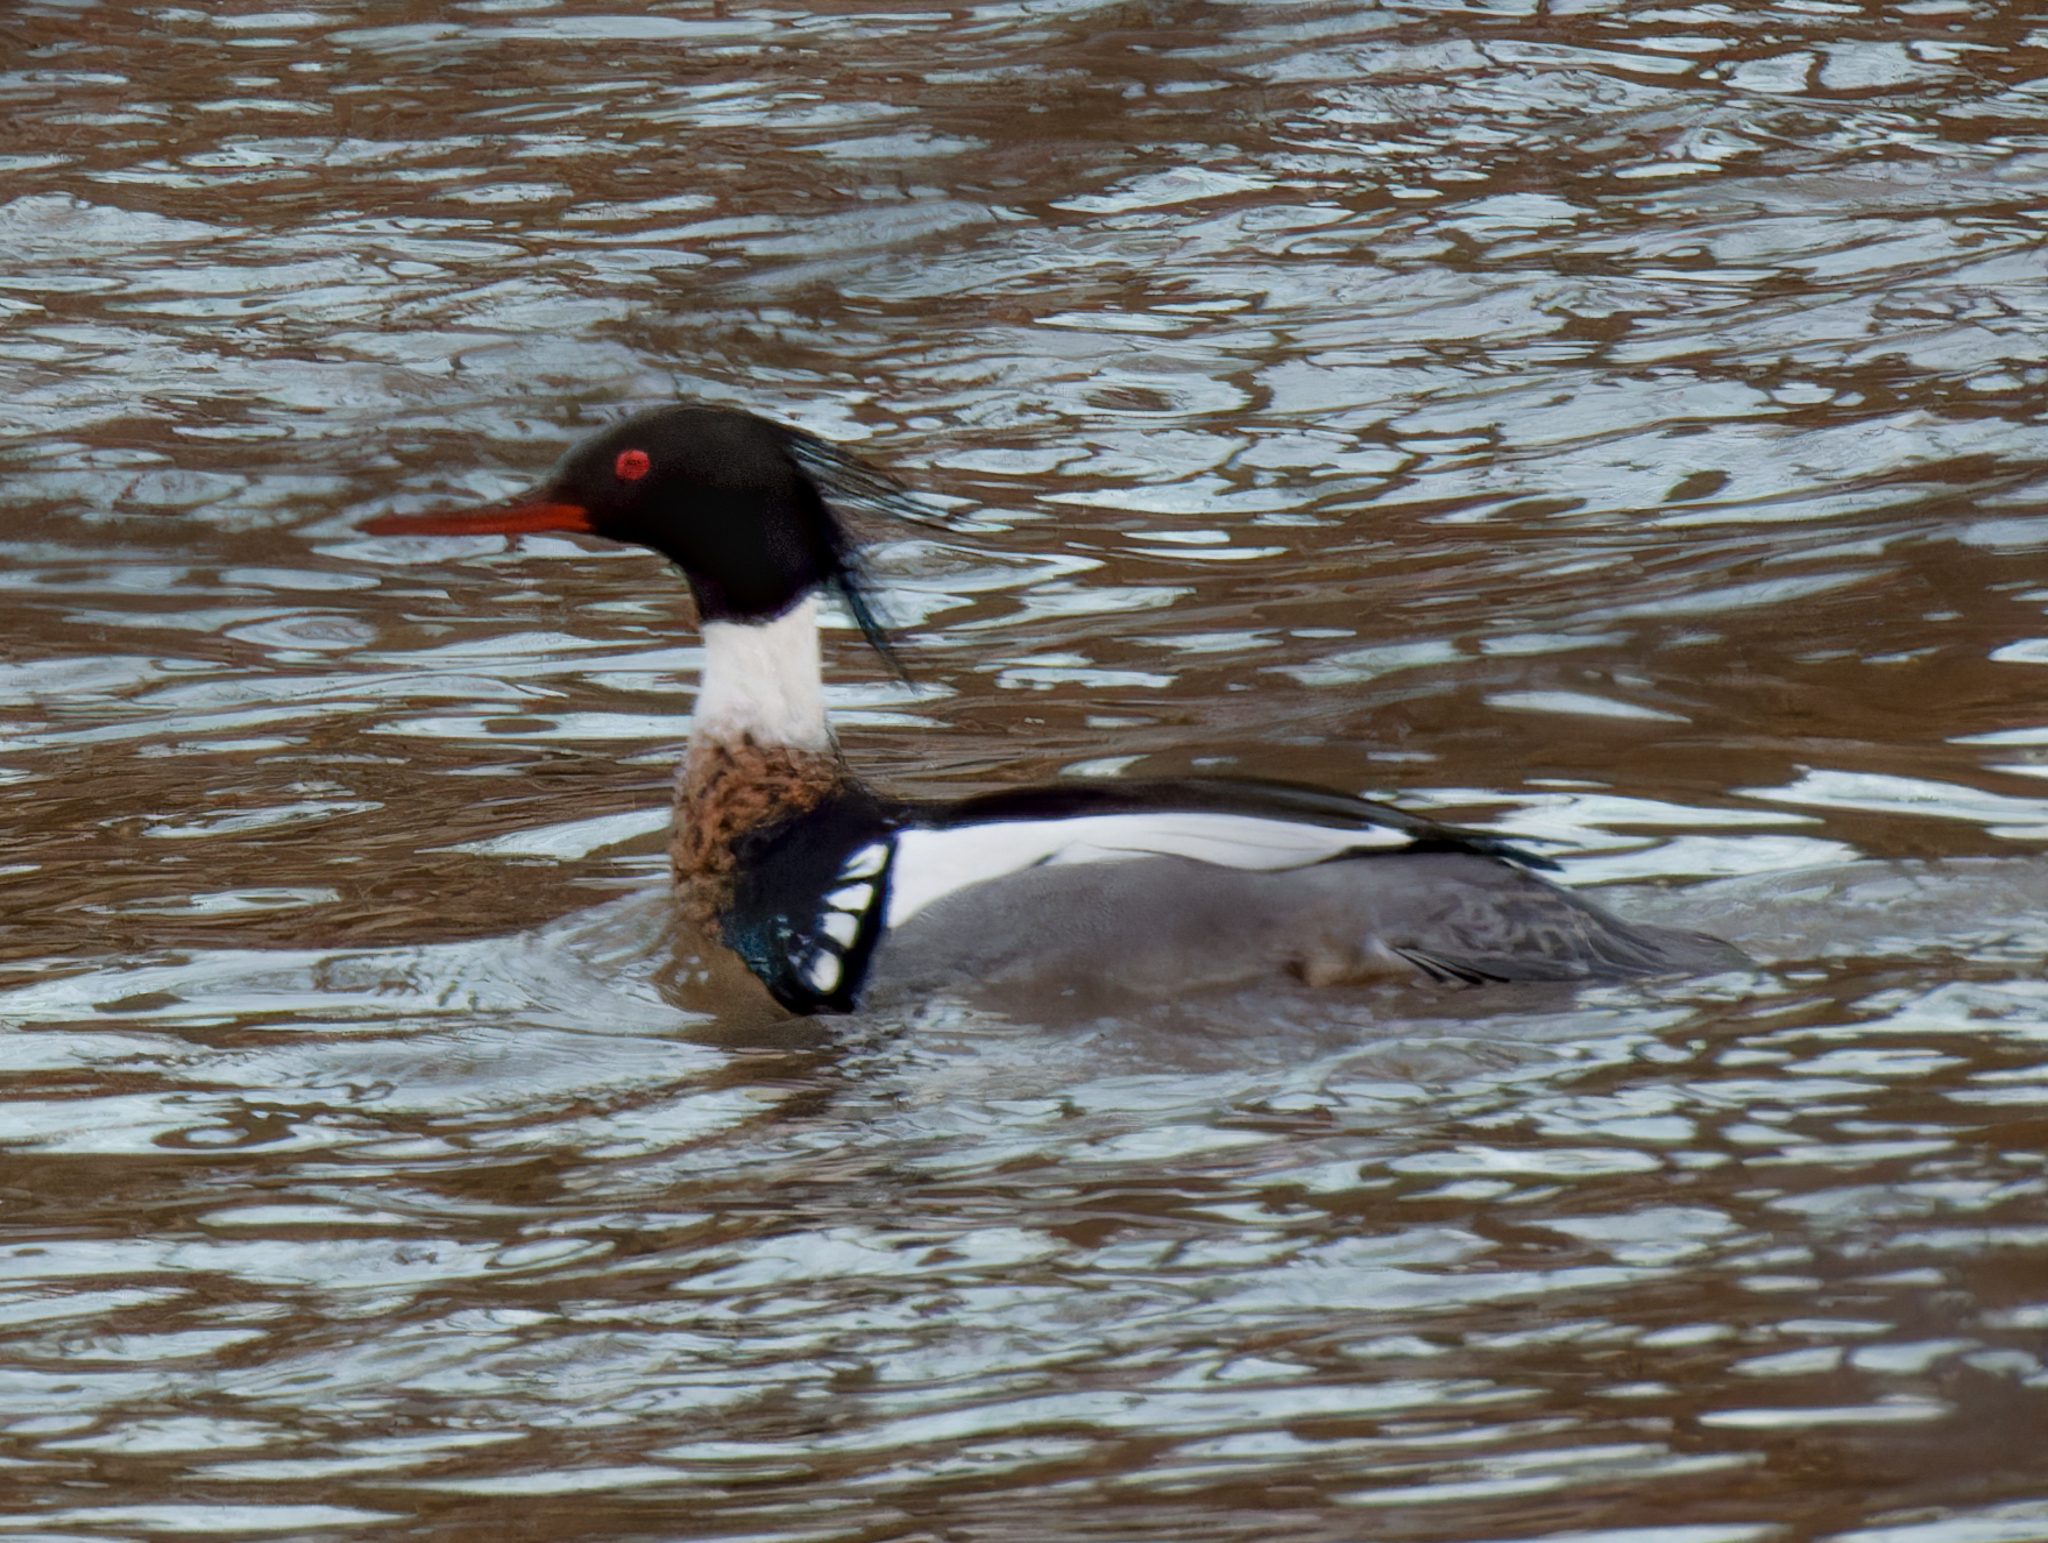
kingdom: Animalia
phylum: Chordata
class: Aves
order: Anseriformes
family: Anatidae
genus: Mergus
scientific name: Mergus serrator
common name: Red-breasted merganser
